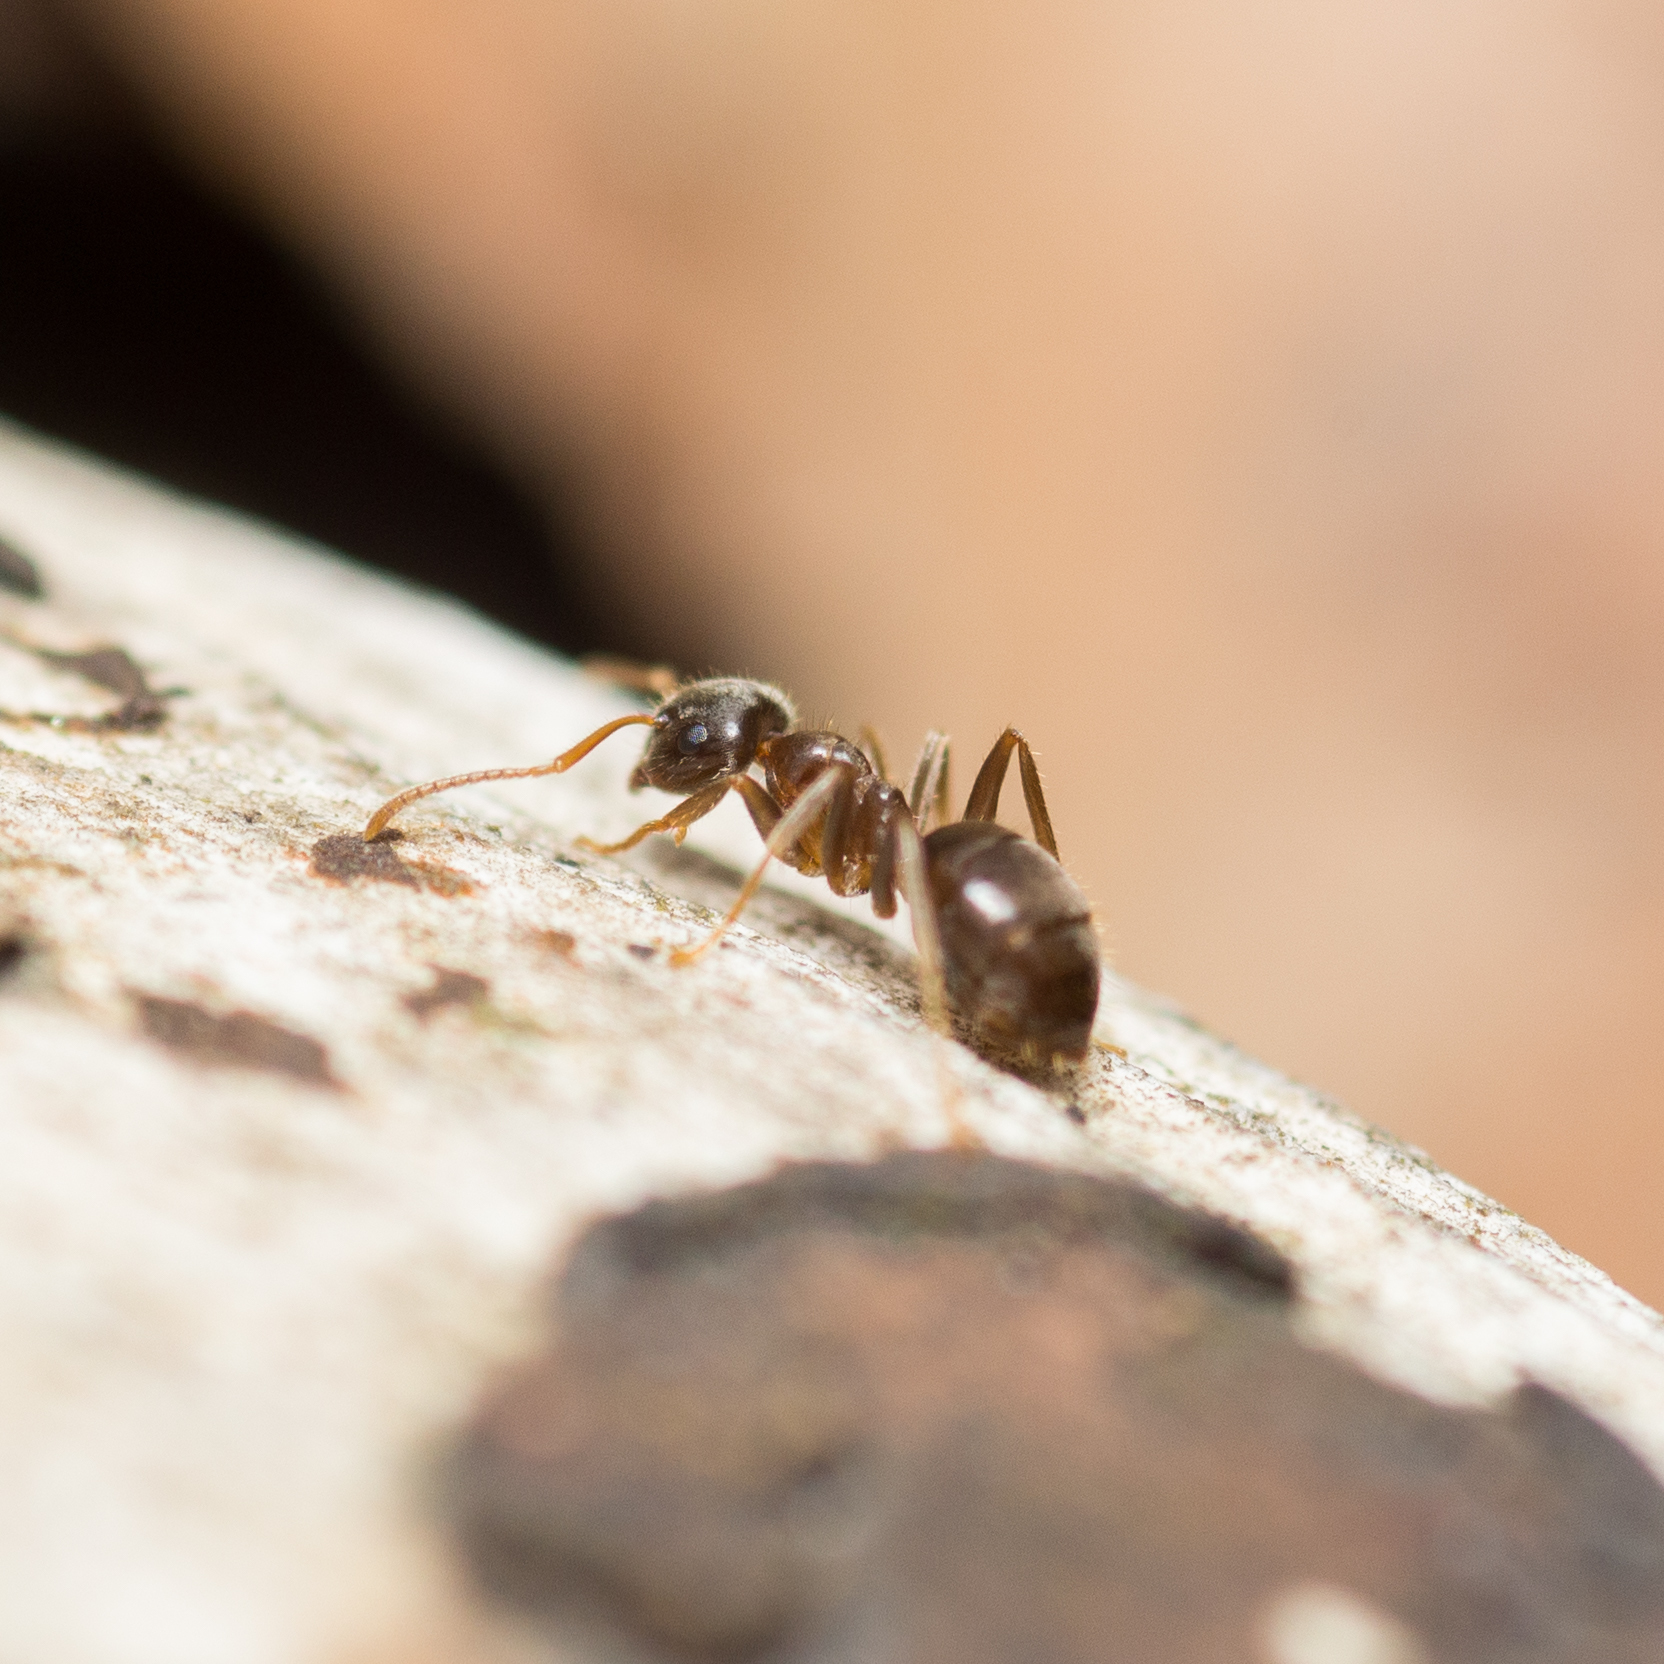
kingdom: Animalia
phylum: Arthropoda
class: Insecta
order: Hymenoptera
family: Formicidae
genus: Lasius
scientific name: Lasius niger
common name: Small black ant
